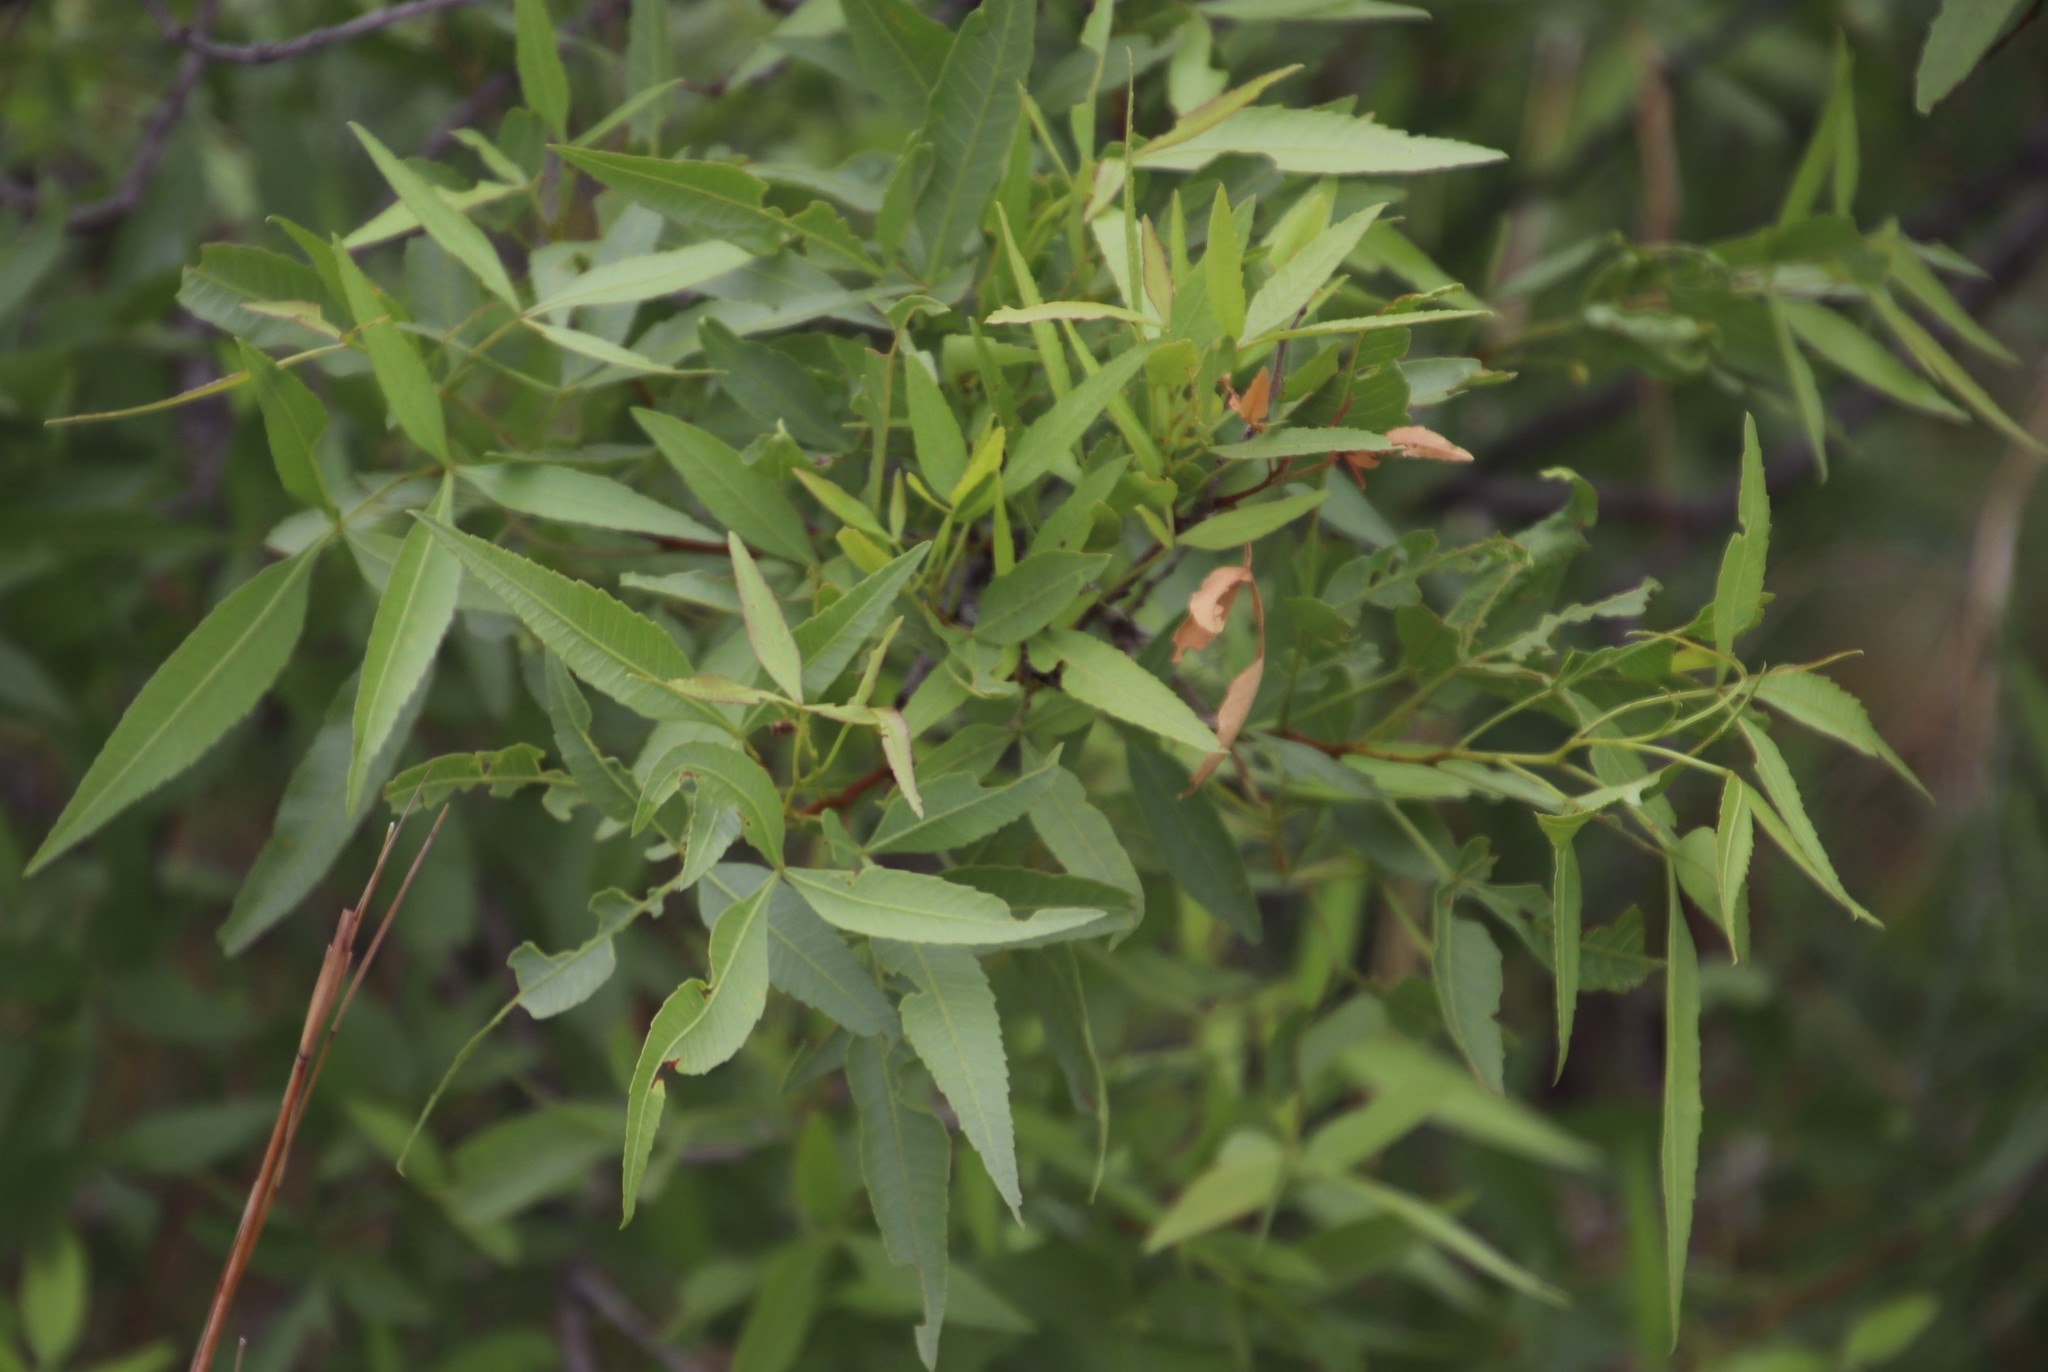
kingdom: Plantae
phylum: Tracheophyta
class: Magnoliopsida
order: Sapindales
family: Anacardiaceae
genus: Searsia
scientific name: Searsia leptodictya
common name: Mountain karee
